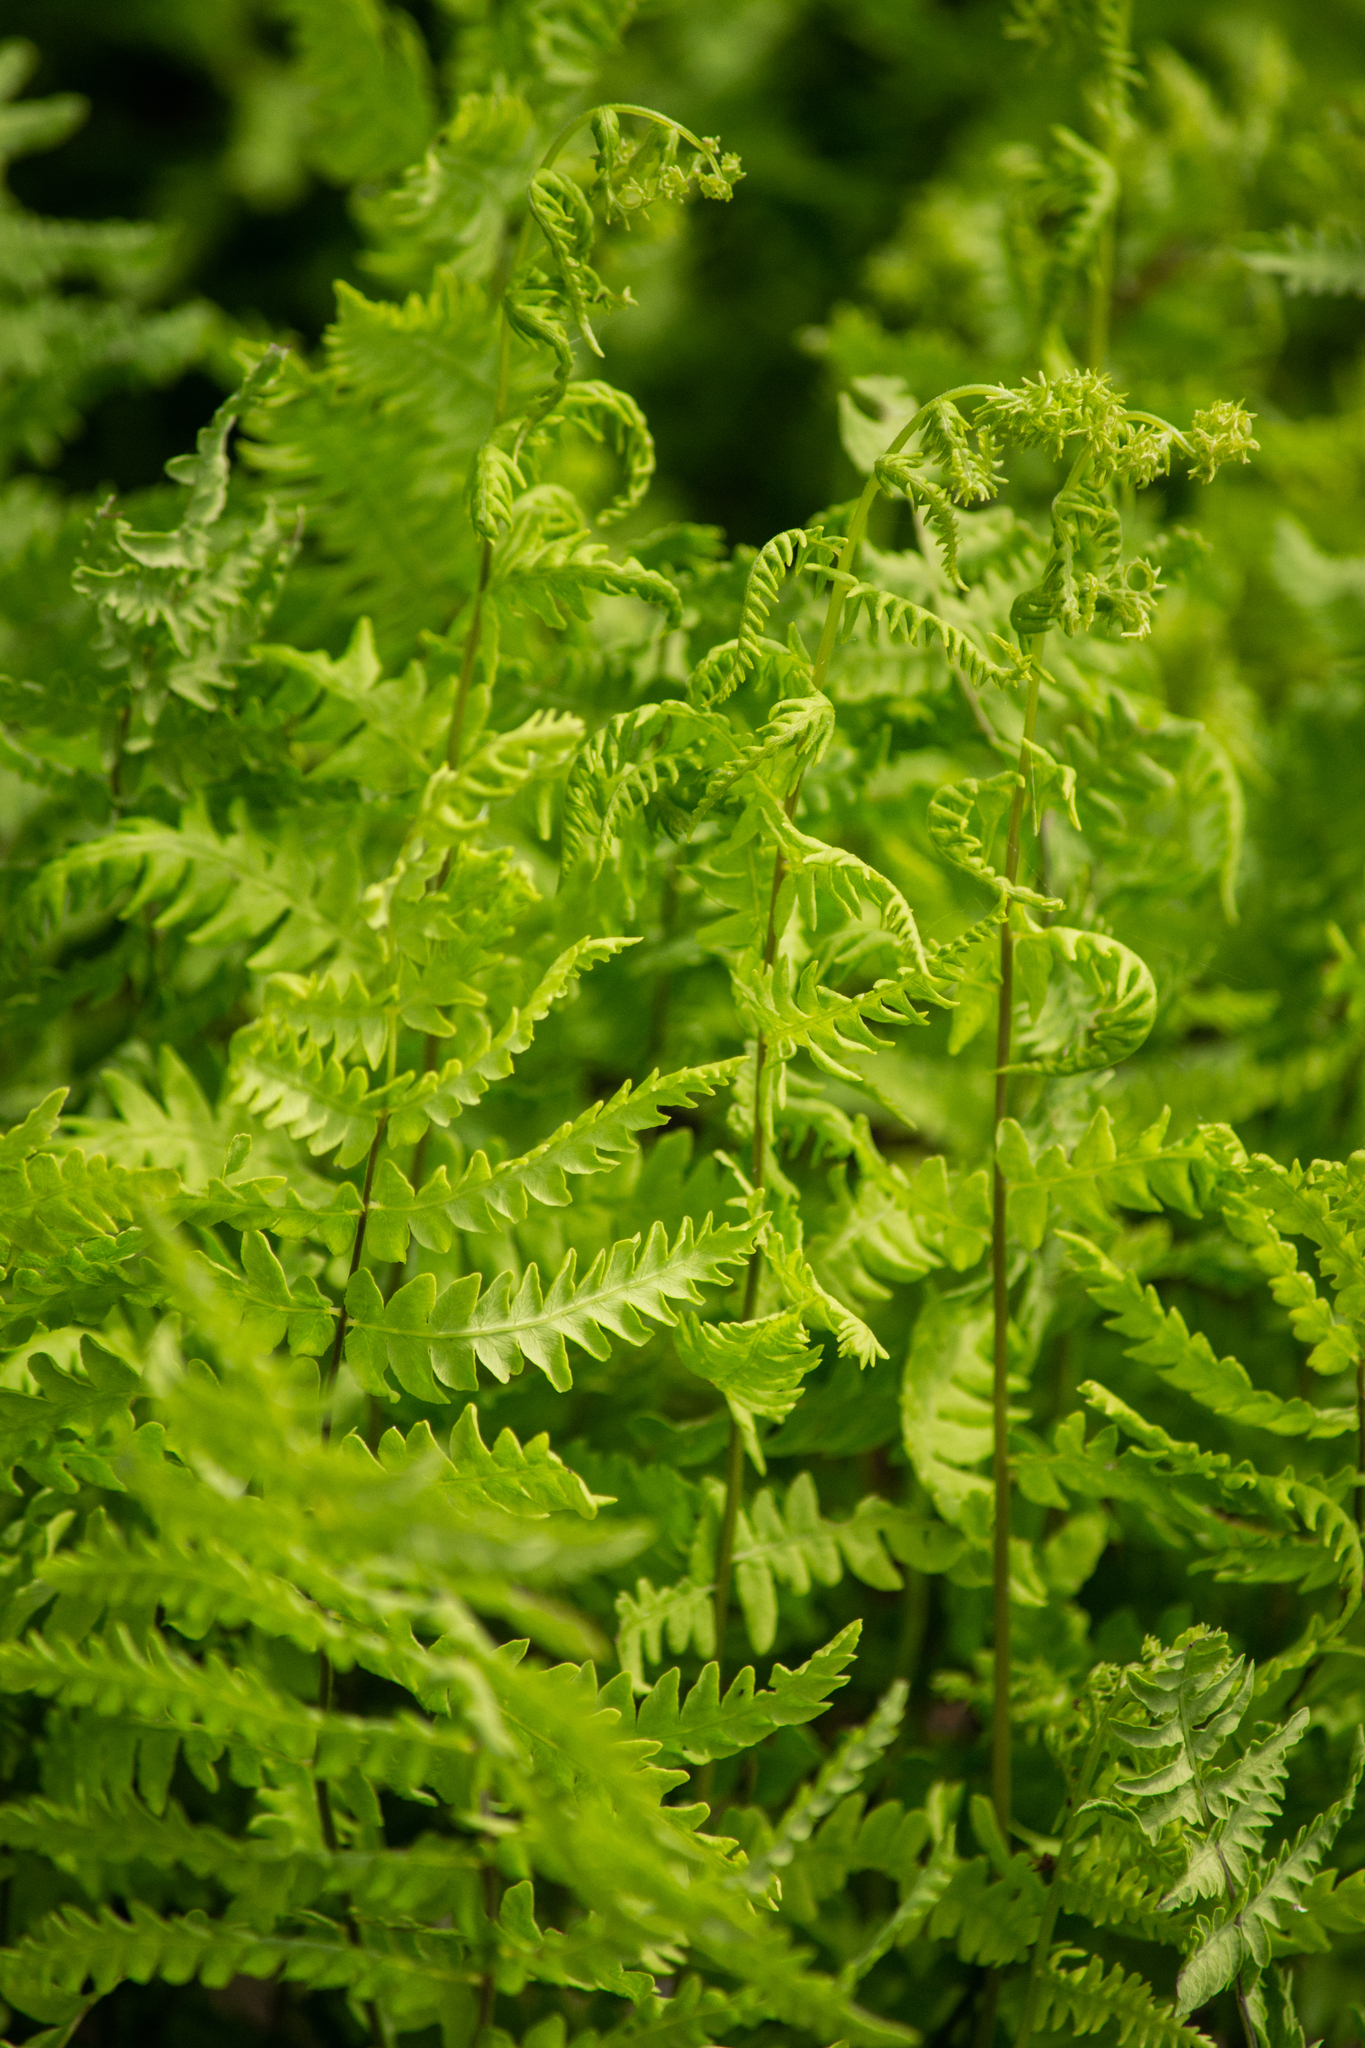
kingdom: Plantae
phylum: Tracheophyta
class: Polypodiopsida
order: Polypodiales
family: Thelypteridaceae
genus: Thelypteris
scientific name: Thelypteris palustris
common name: Marsh fern
